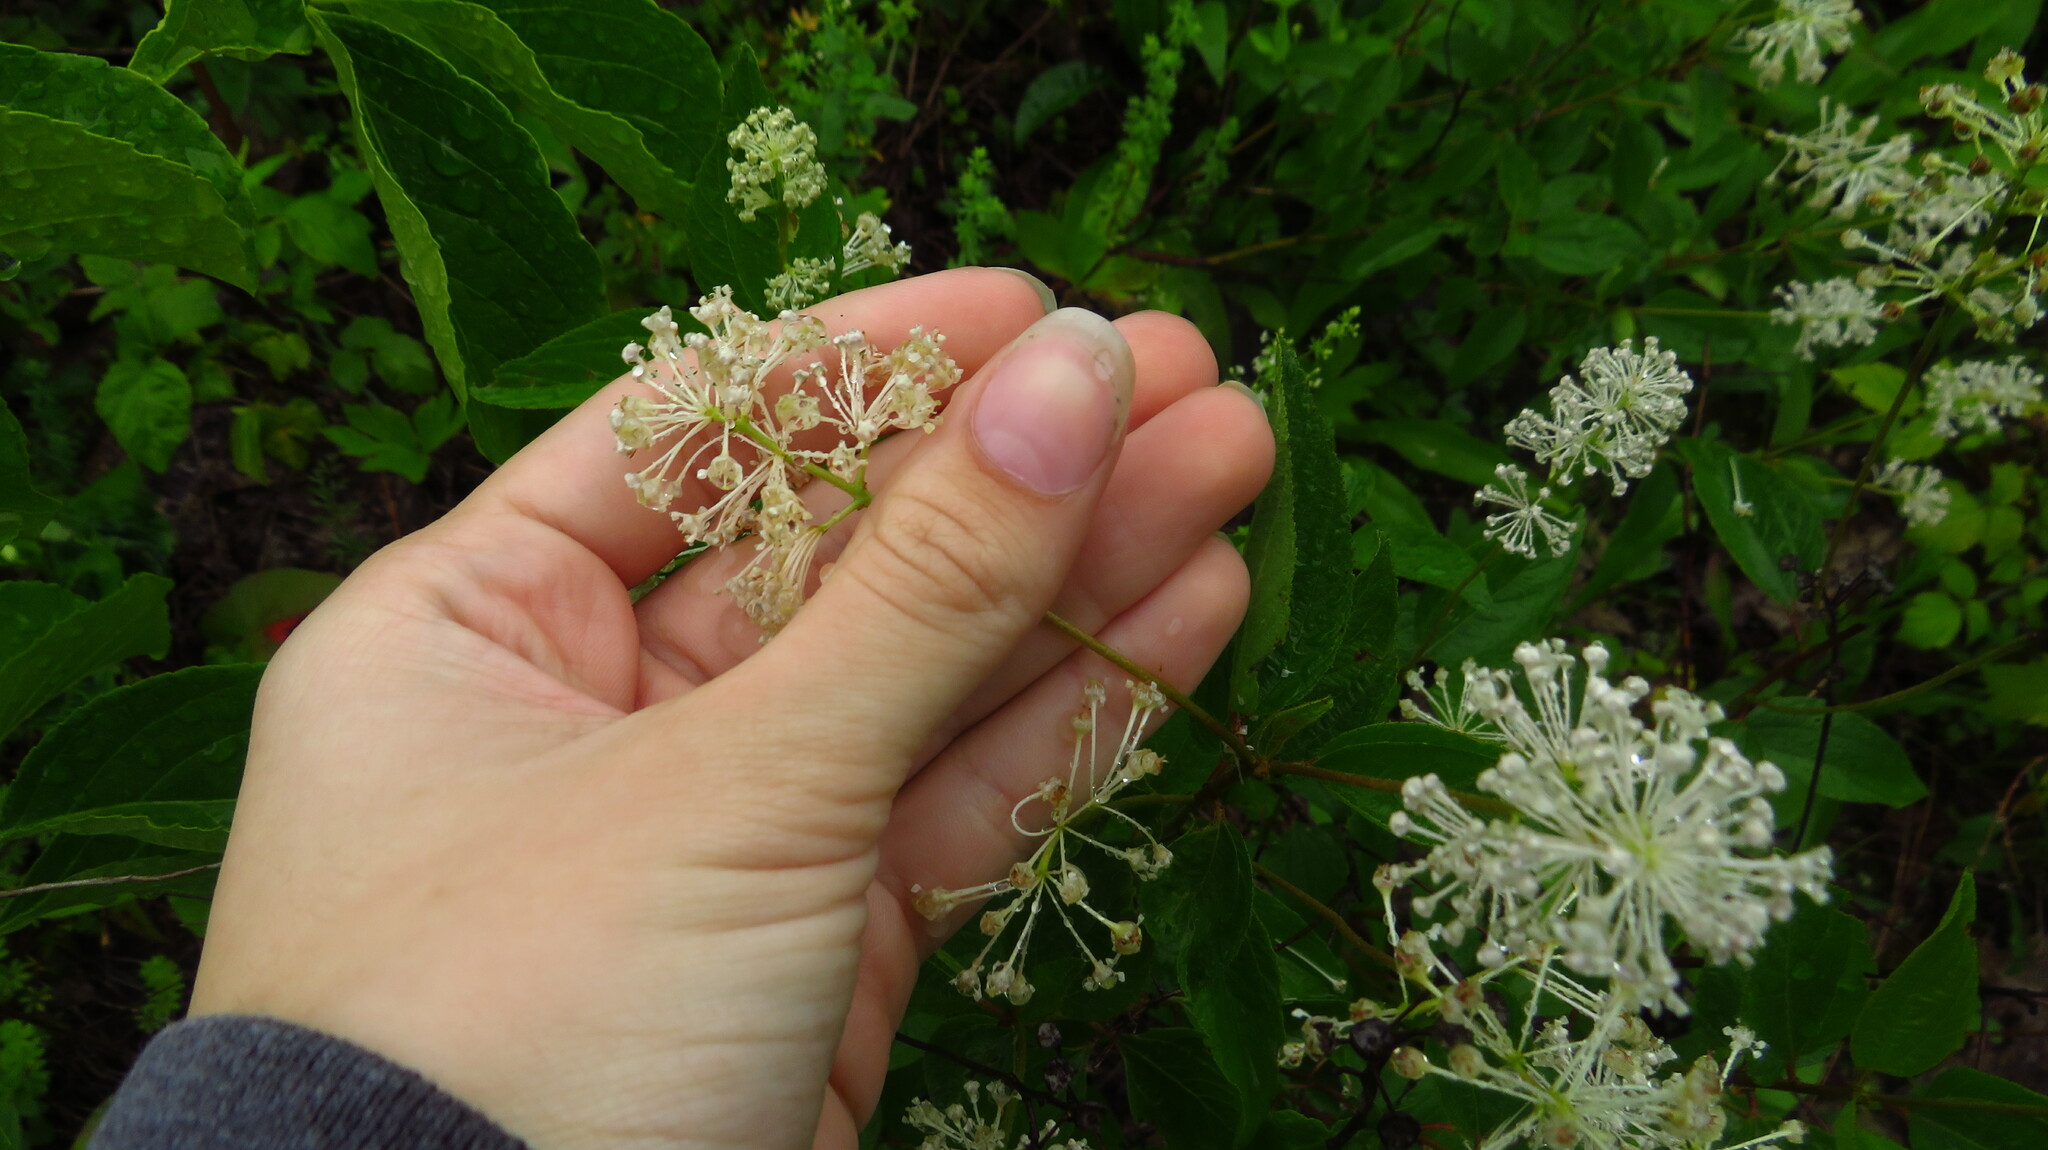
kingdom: Plantae
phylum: Tracheophyta
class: Magnoliopsida
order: Rosales
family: Rhamnaceae
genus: Ceanothus
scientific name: Ceanothus americanus
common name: Redroot
